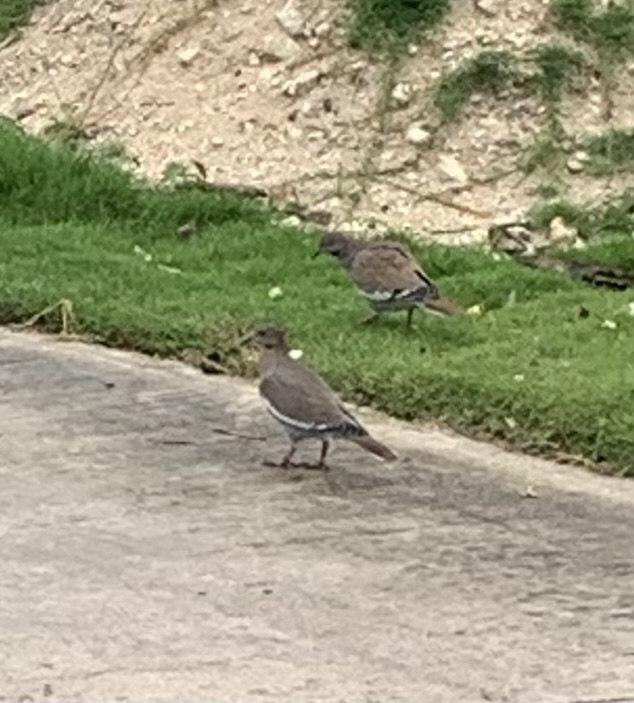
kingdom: Animalia
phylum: Chordata
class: Aves
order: Columbiformes
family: Columbidae
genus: Zenaida
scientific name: Zenaida asiatica
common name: White-winged dove
